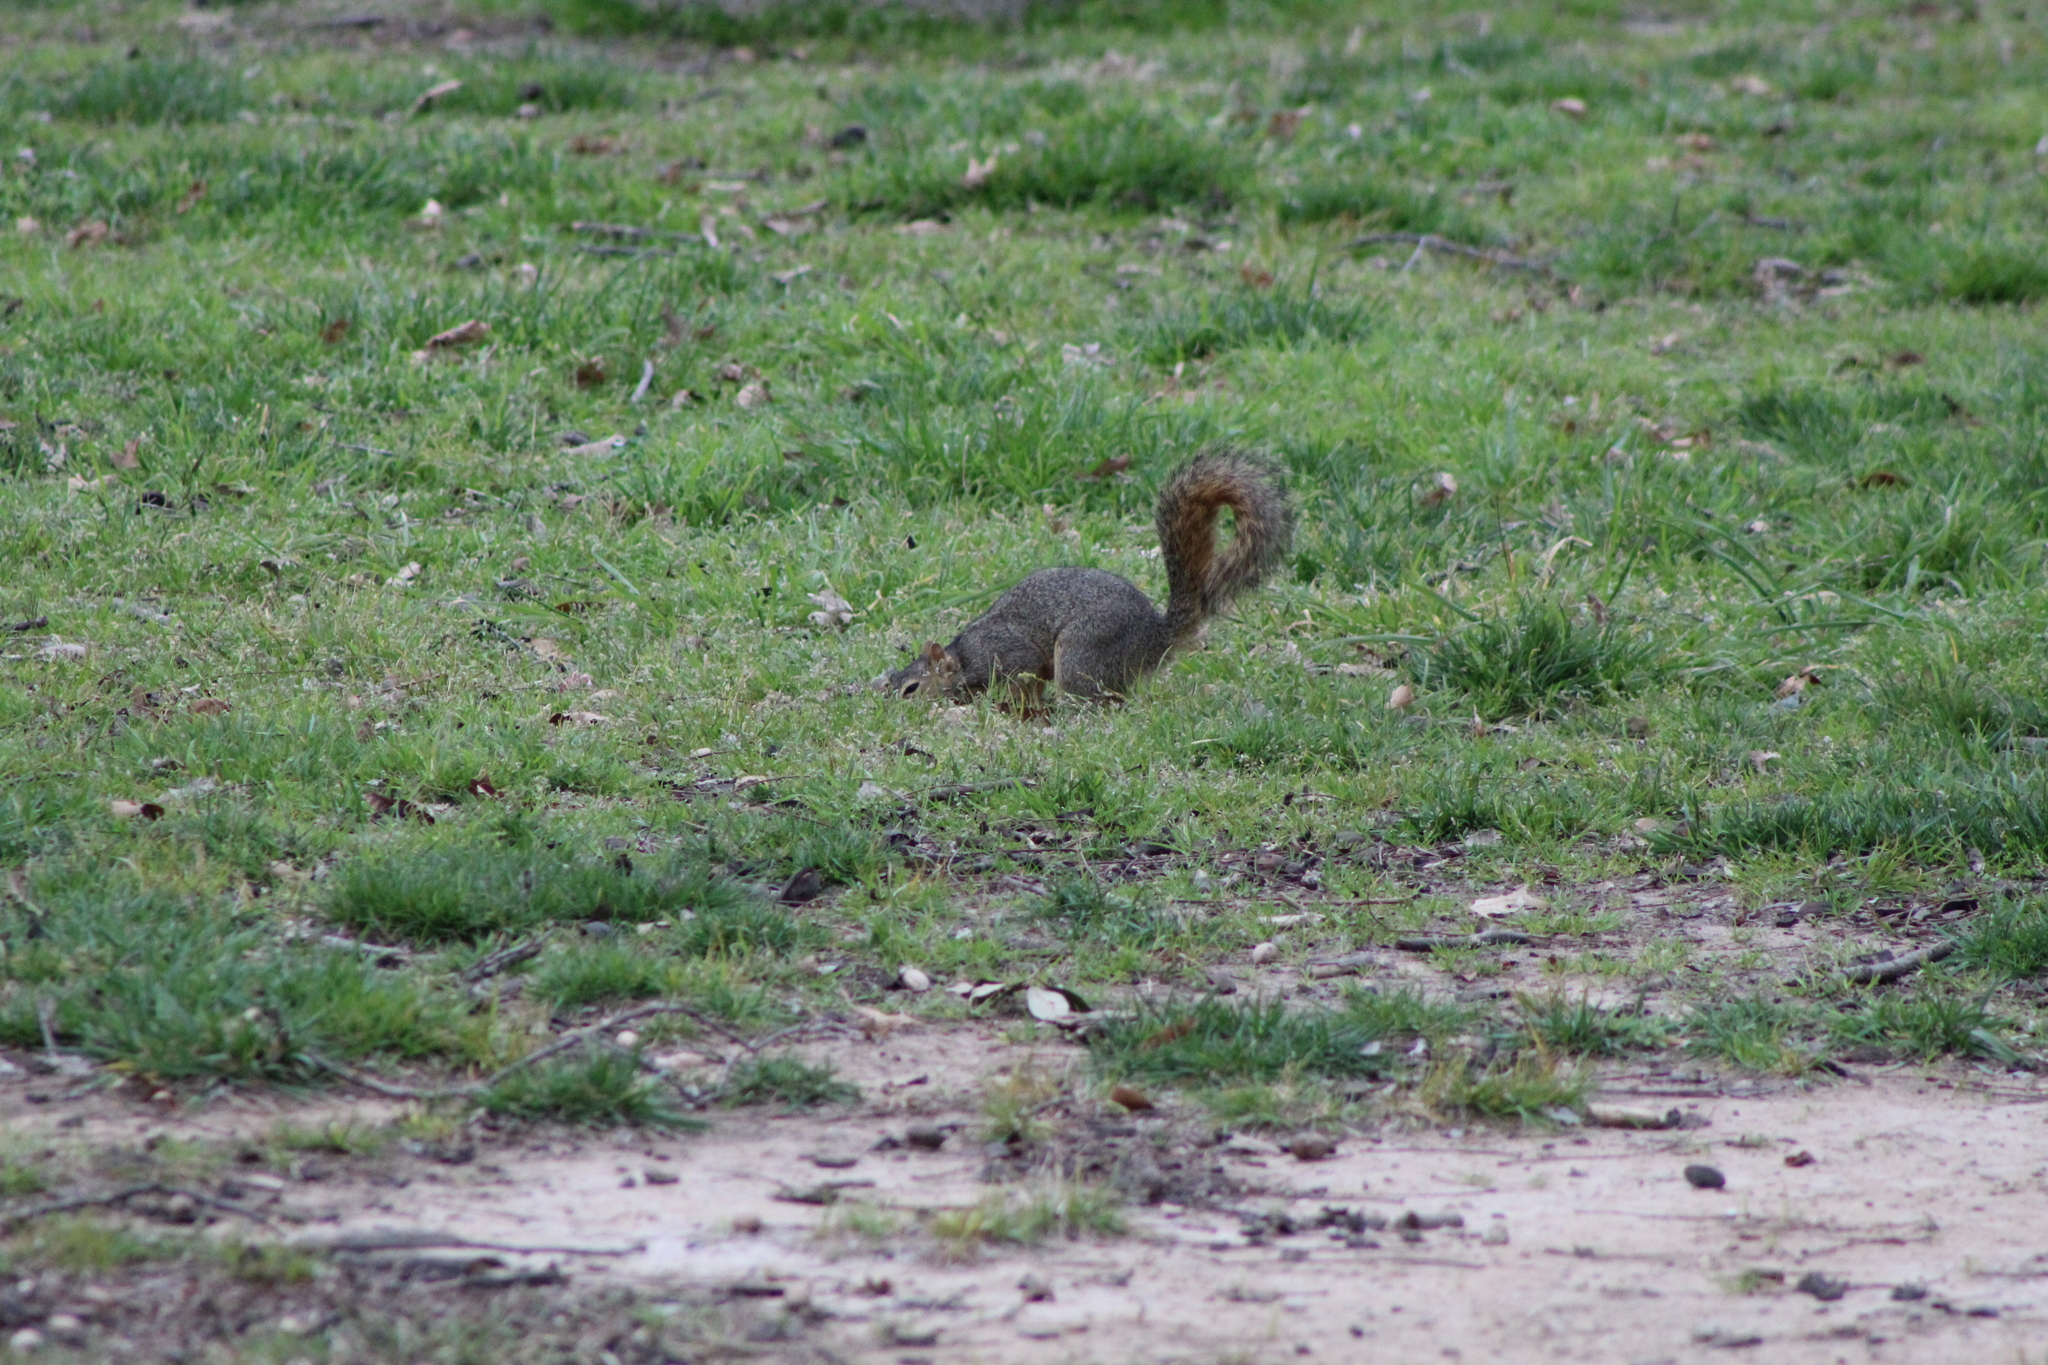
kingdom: Animalia
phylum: Chordata
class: Mammalia
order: Rodentia
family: Sciuridae
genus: Sciurus
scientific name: Sciurus niger
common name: Fox squirrel
